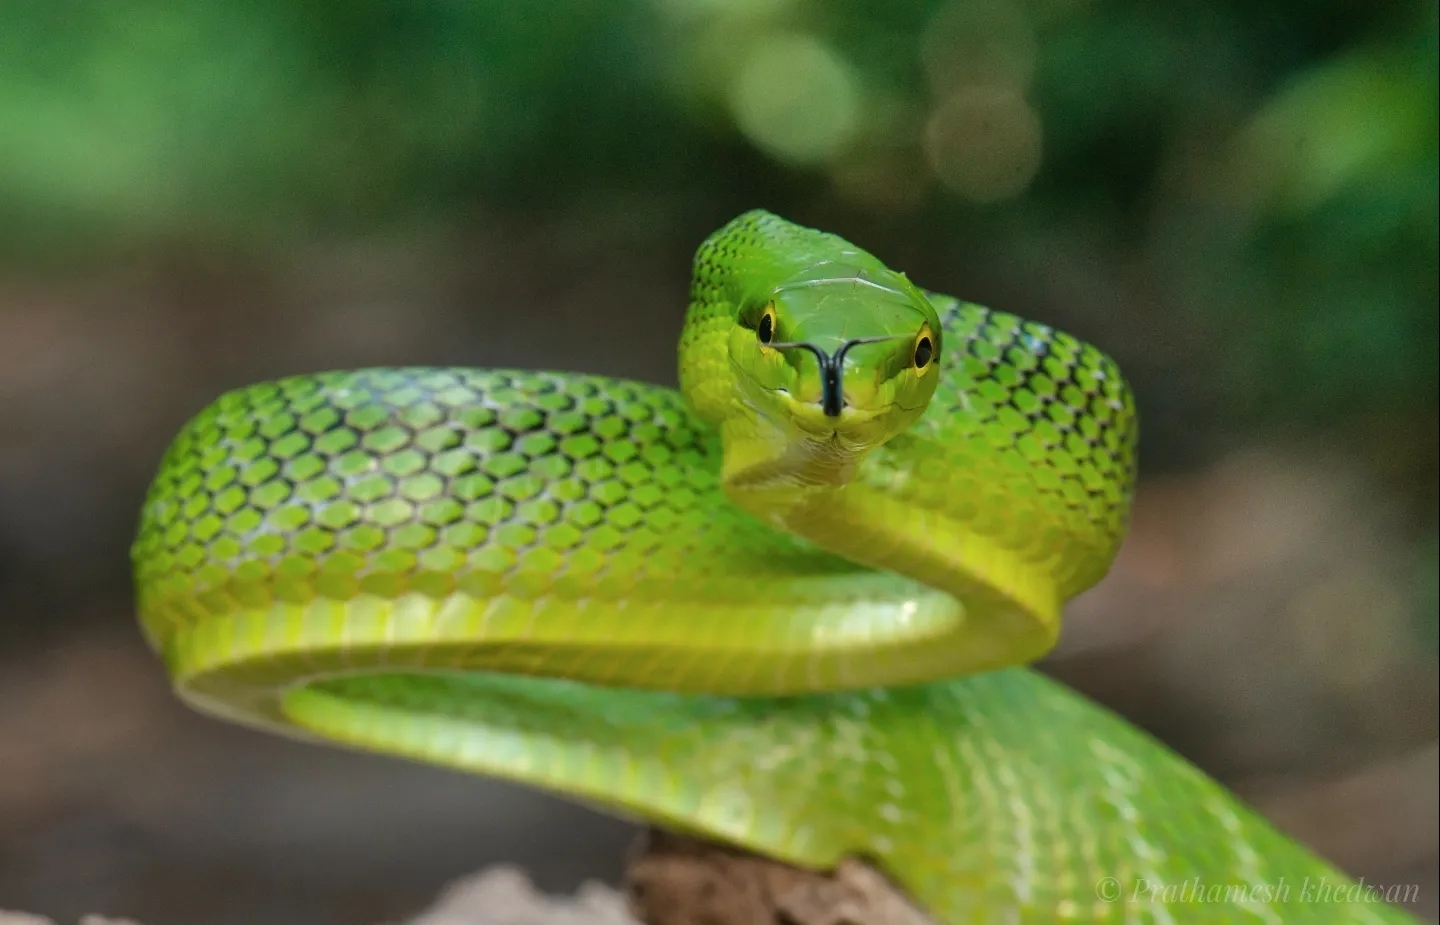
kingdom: Animalia
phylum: Chordata
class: Squamata
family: Colubridae
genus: Gonyosoma
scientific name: Gonyosoma oxycephalum
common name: Red-tailed racer
